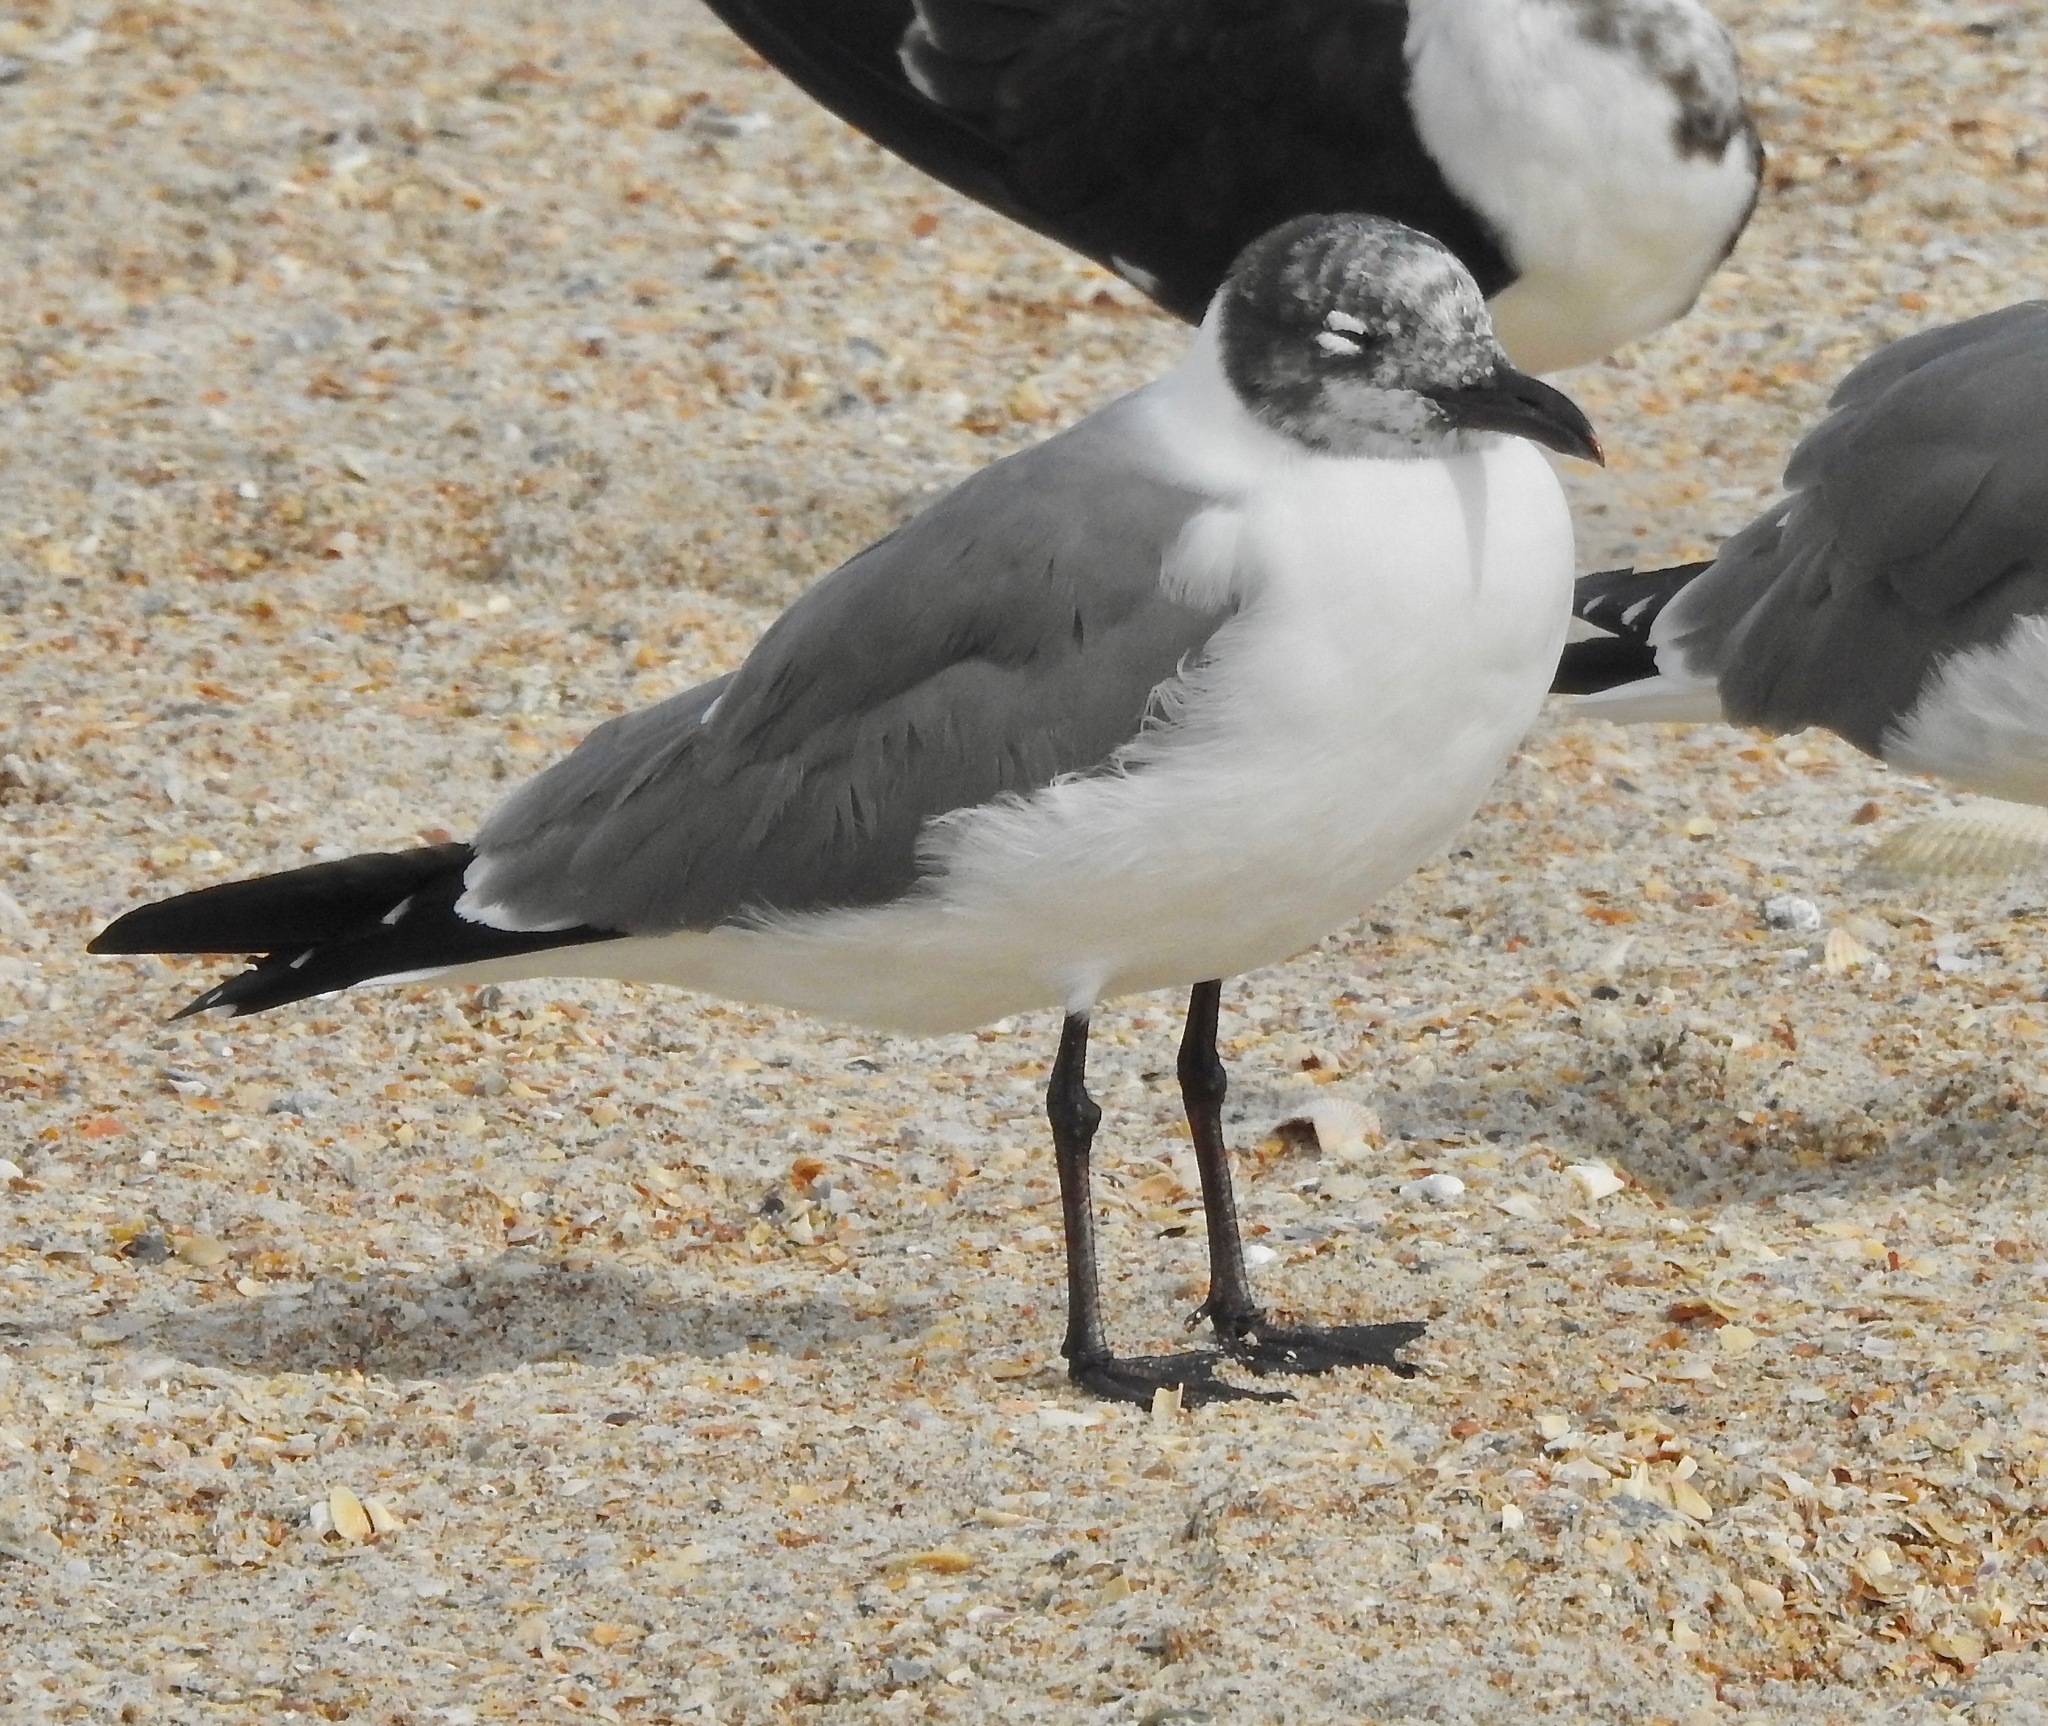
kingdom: Animalia
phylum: Chordata
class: Aves
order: Charadriiformes
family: Laridae
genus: Leucophaeus
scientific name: Leucophaeus atricilla
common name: Laughing gull
